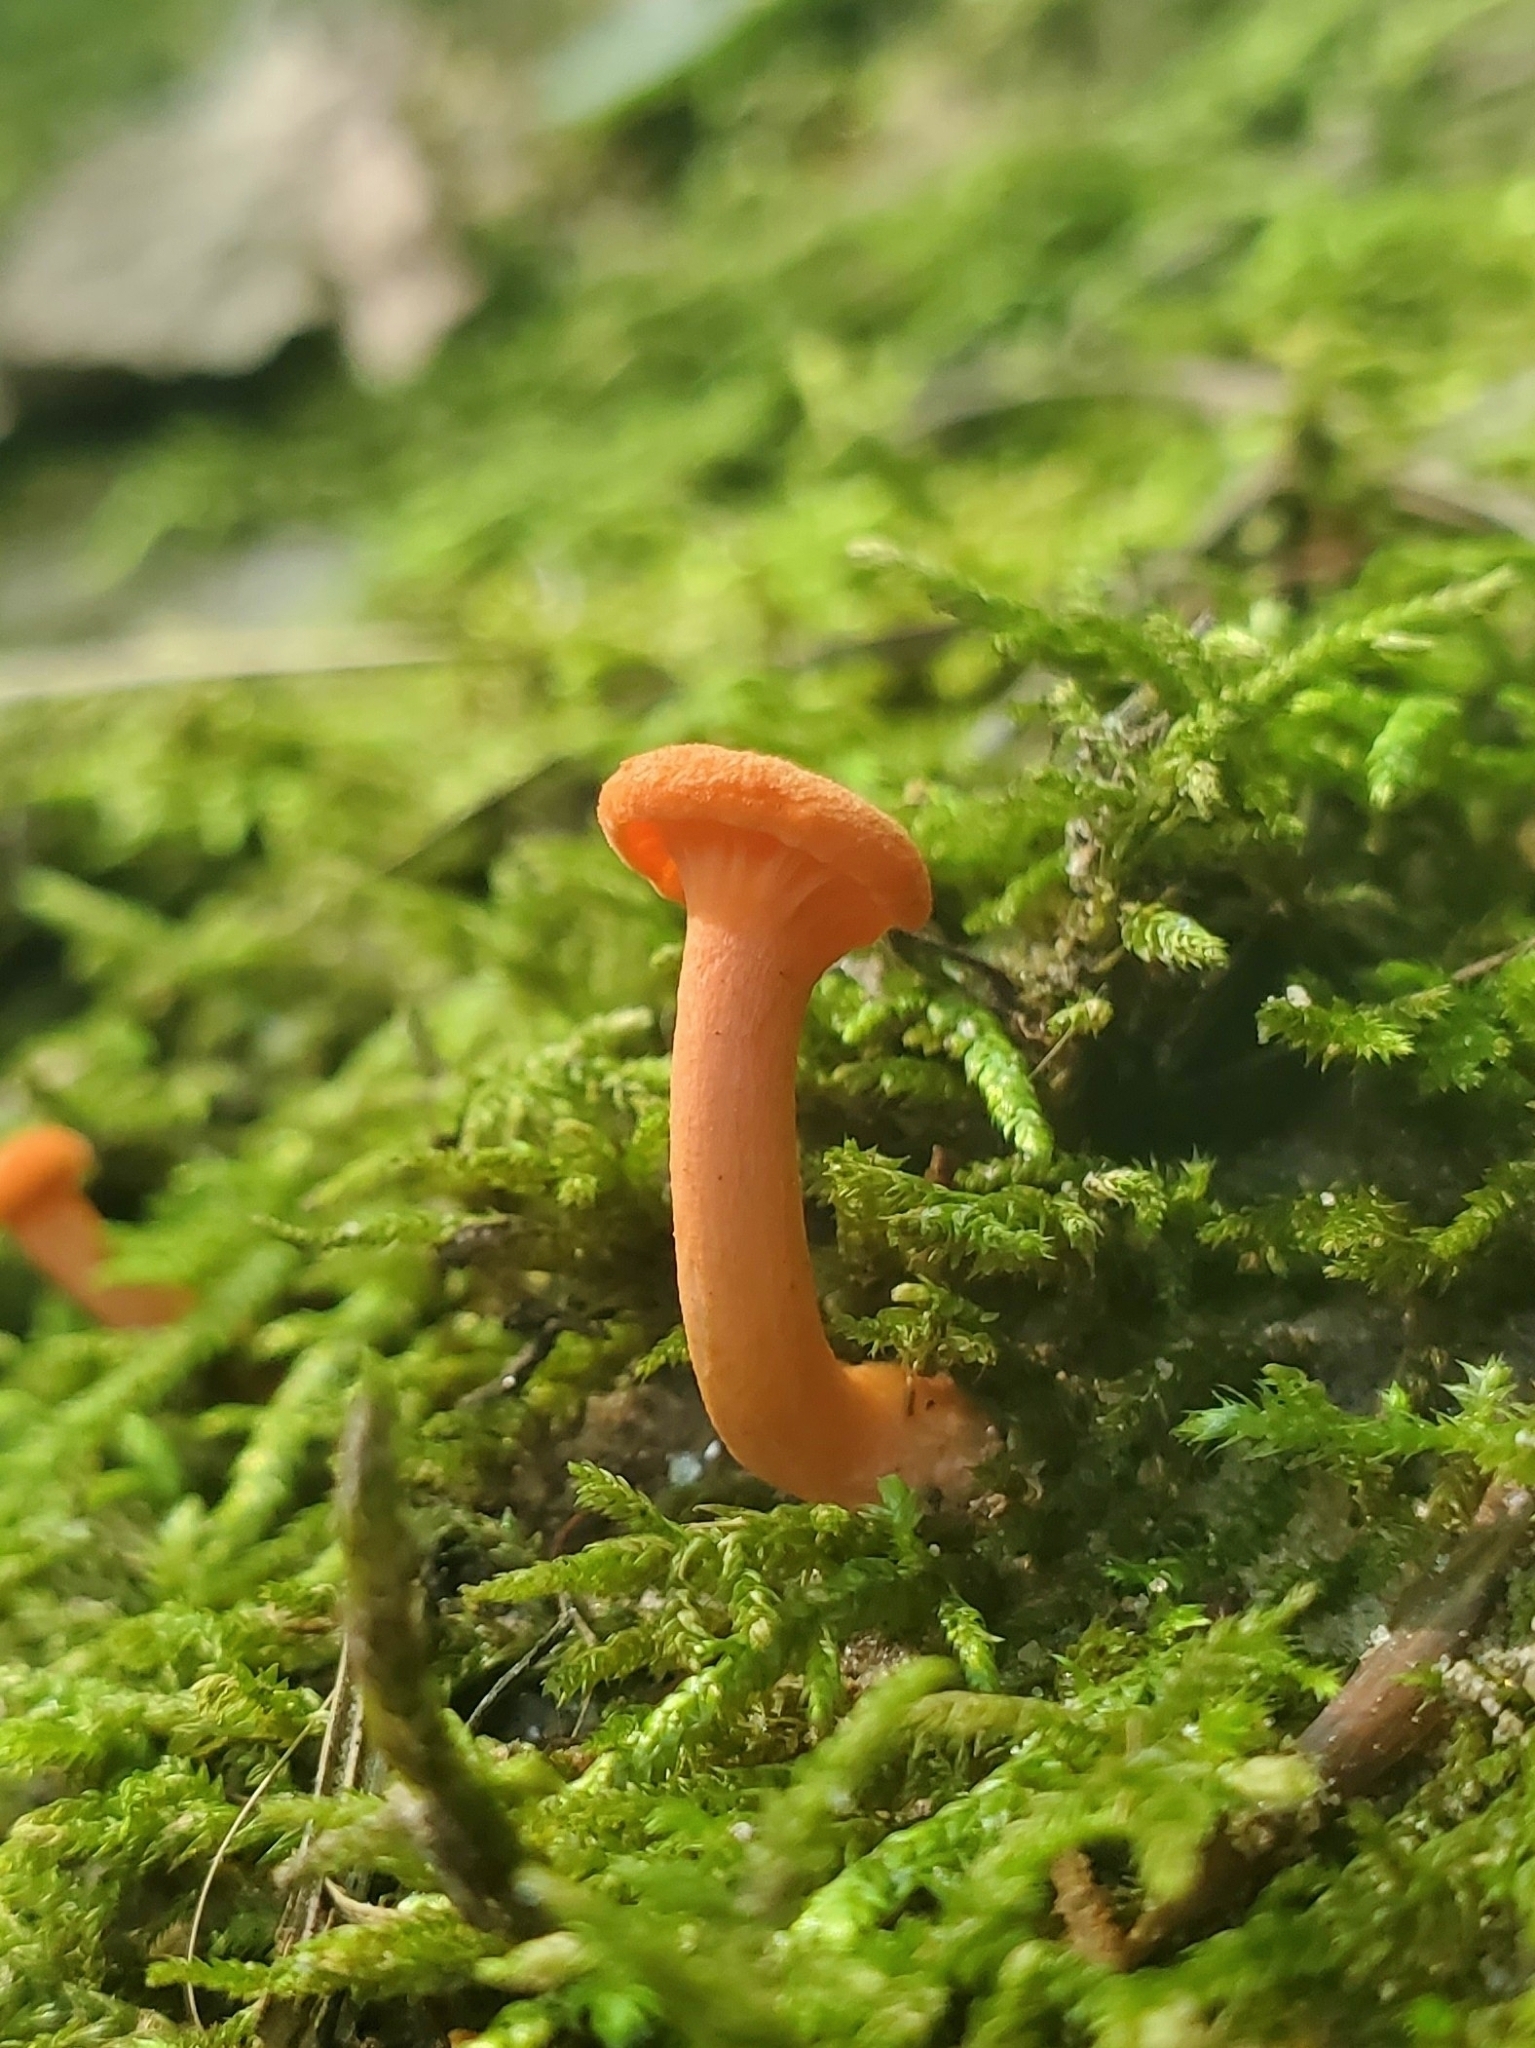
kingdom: Fungi
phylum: Basidiomycota
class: Agaricomycetes
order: Cantharellales
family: Hydnaceae
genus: Cantharellus
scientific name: Cantharellus cinnabarinus
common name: Cinnabar chanterelle
